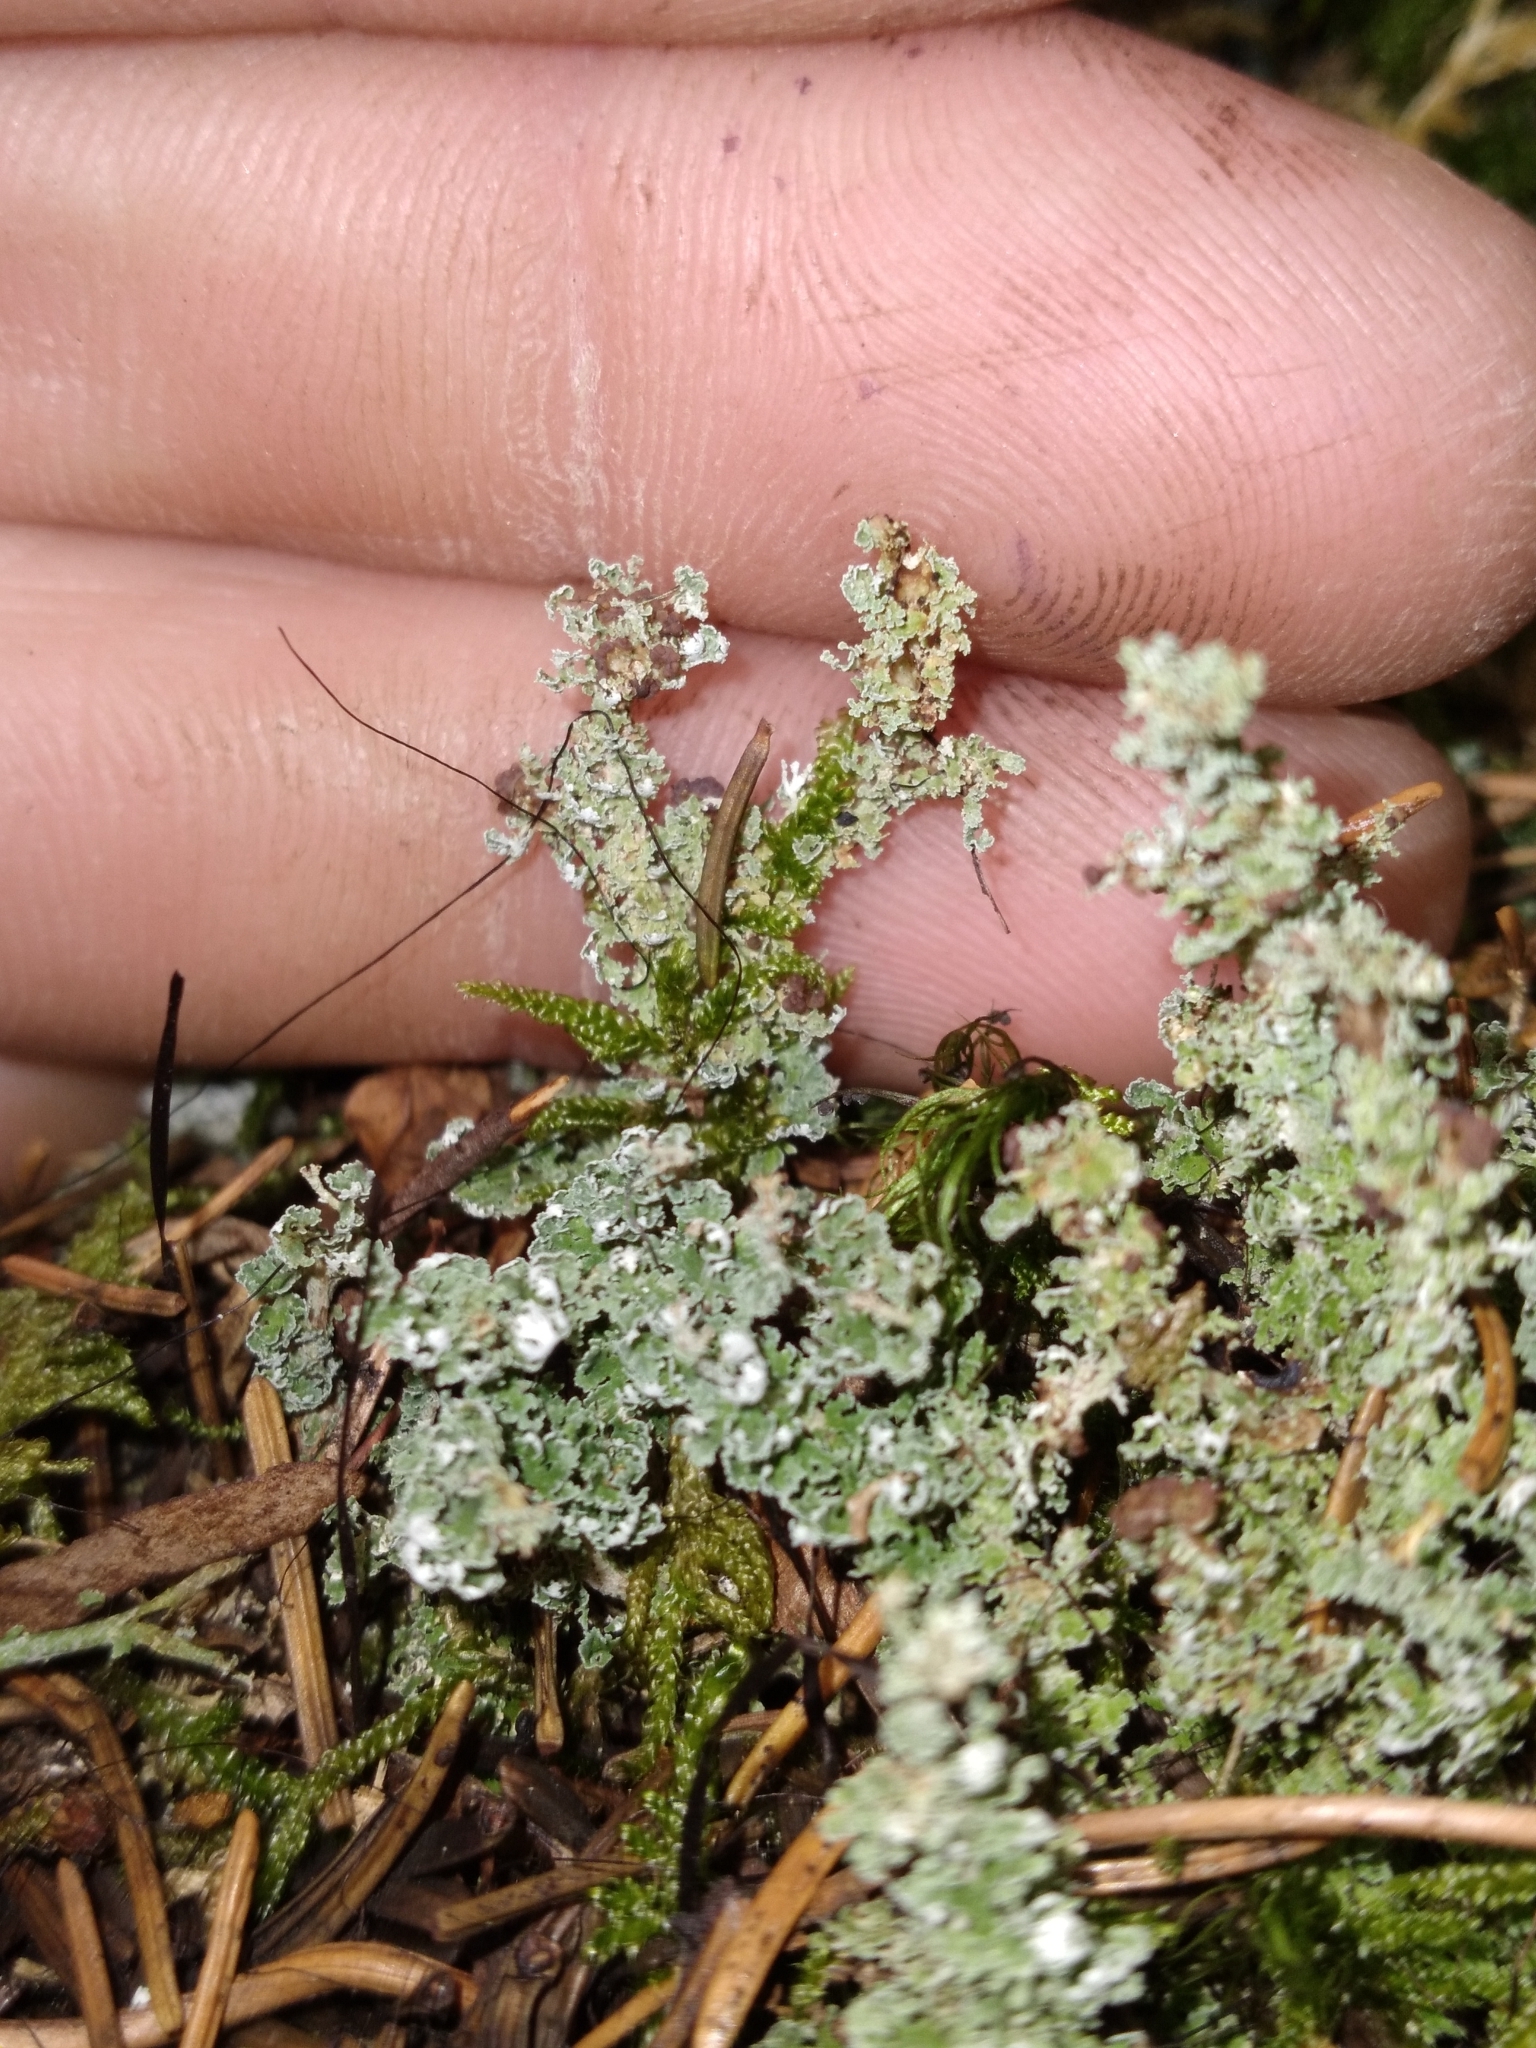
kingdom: Fungi
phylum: Ascomycota
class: Lecanoromycetes
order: Lecanorales
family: Cladoniaceae
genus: Cladonia
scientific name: Cladonia squamosa
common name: Dragon horn
